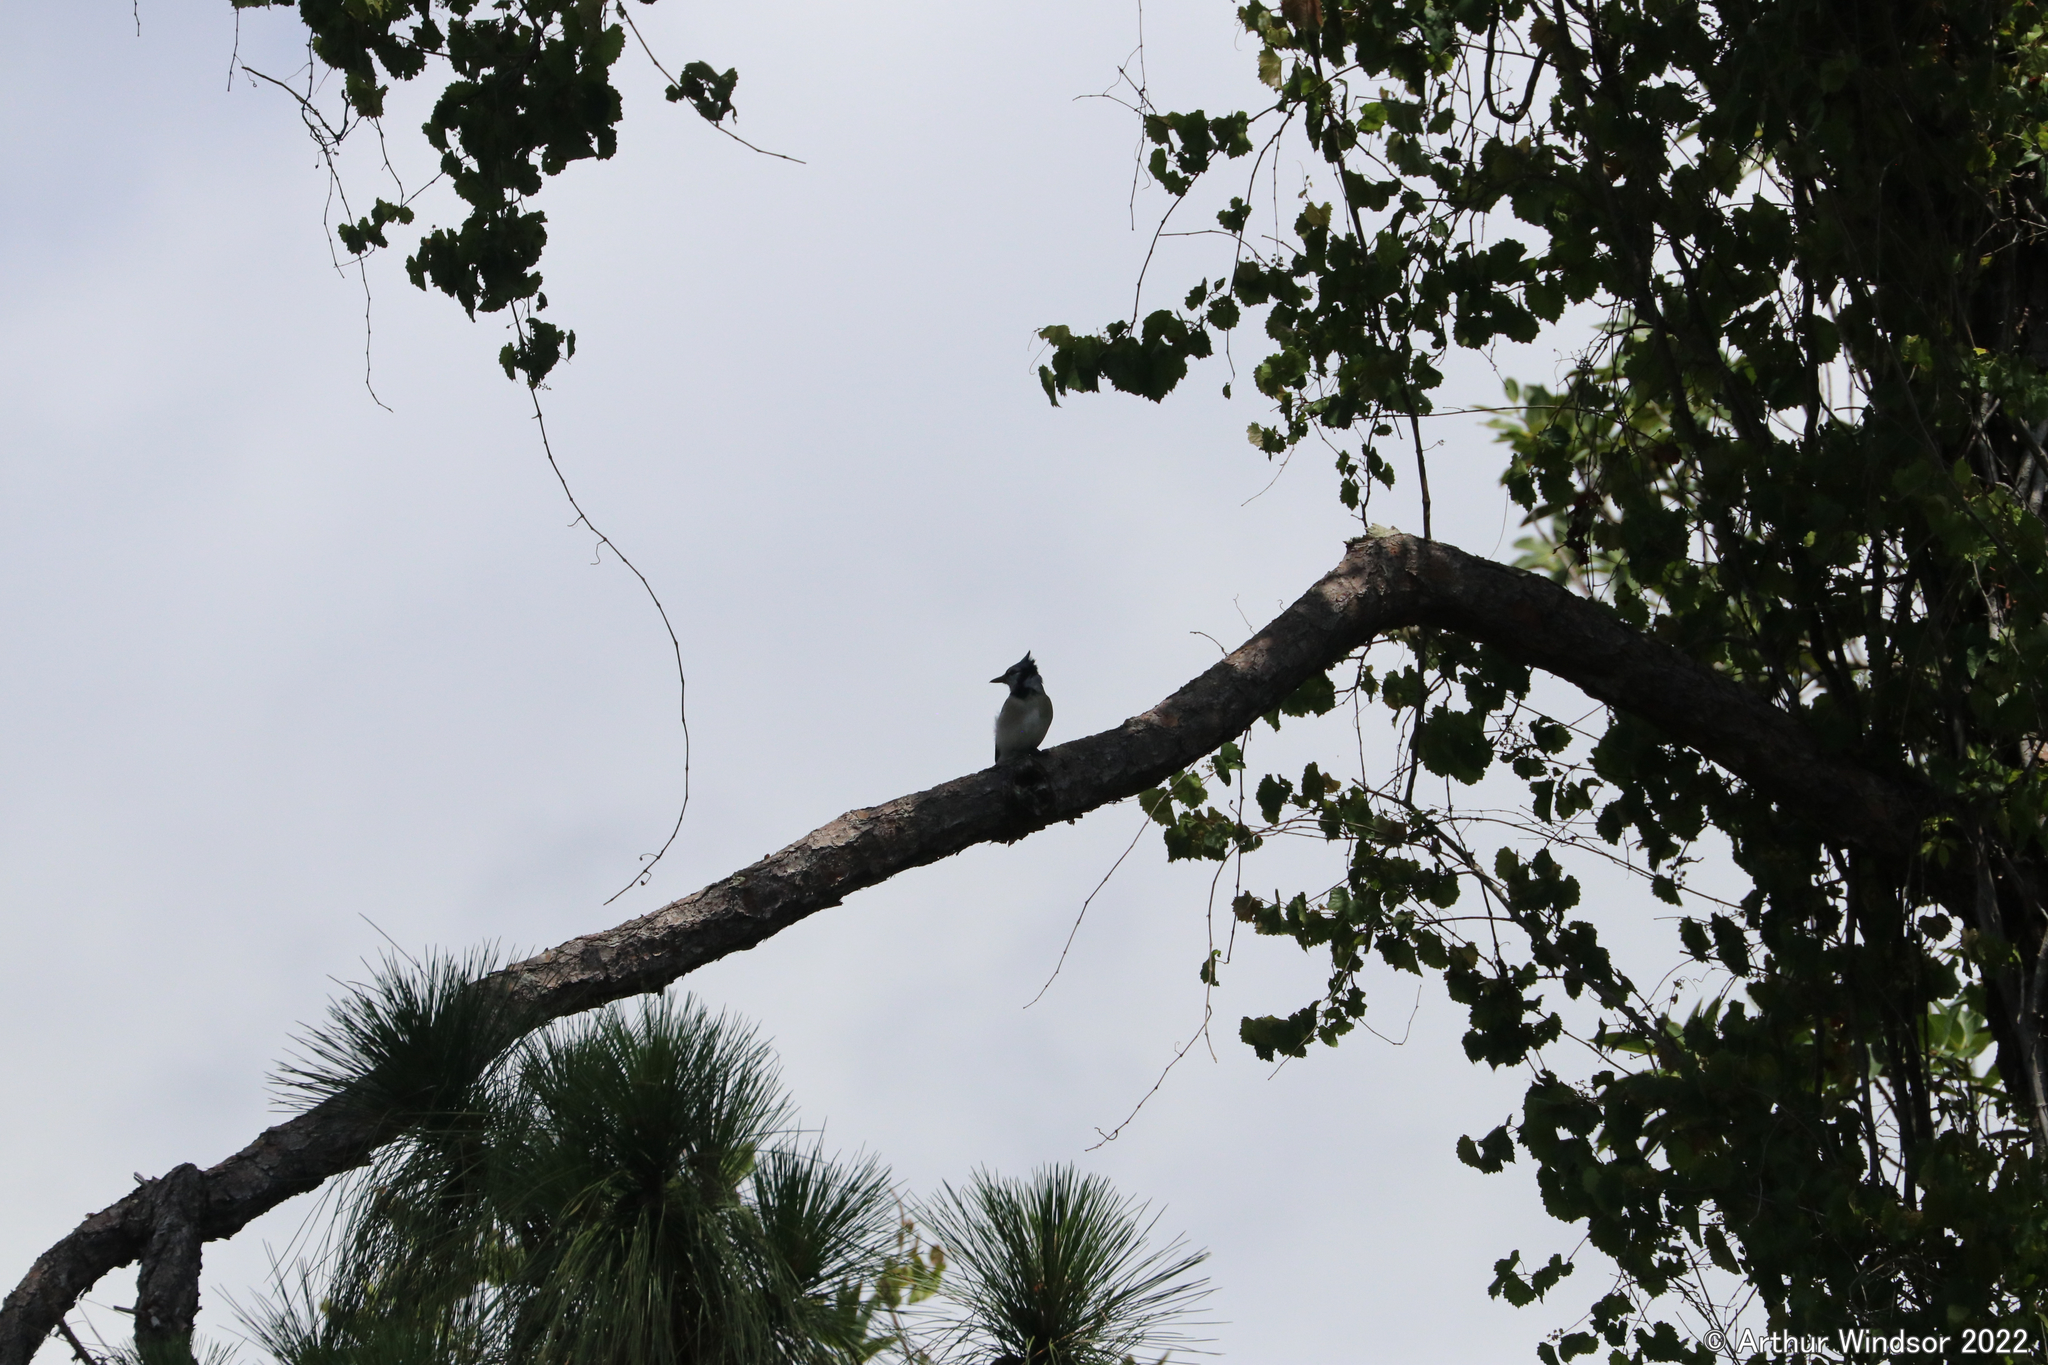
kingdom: Animalia
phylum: Chordata
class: Aves
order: Passeriformes
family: Corvidae
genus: Cyanocitta
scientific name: Cyanocitta cristata
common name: Blue jay
